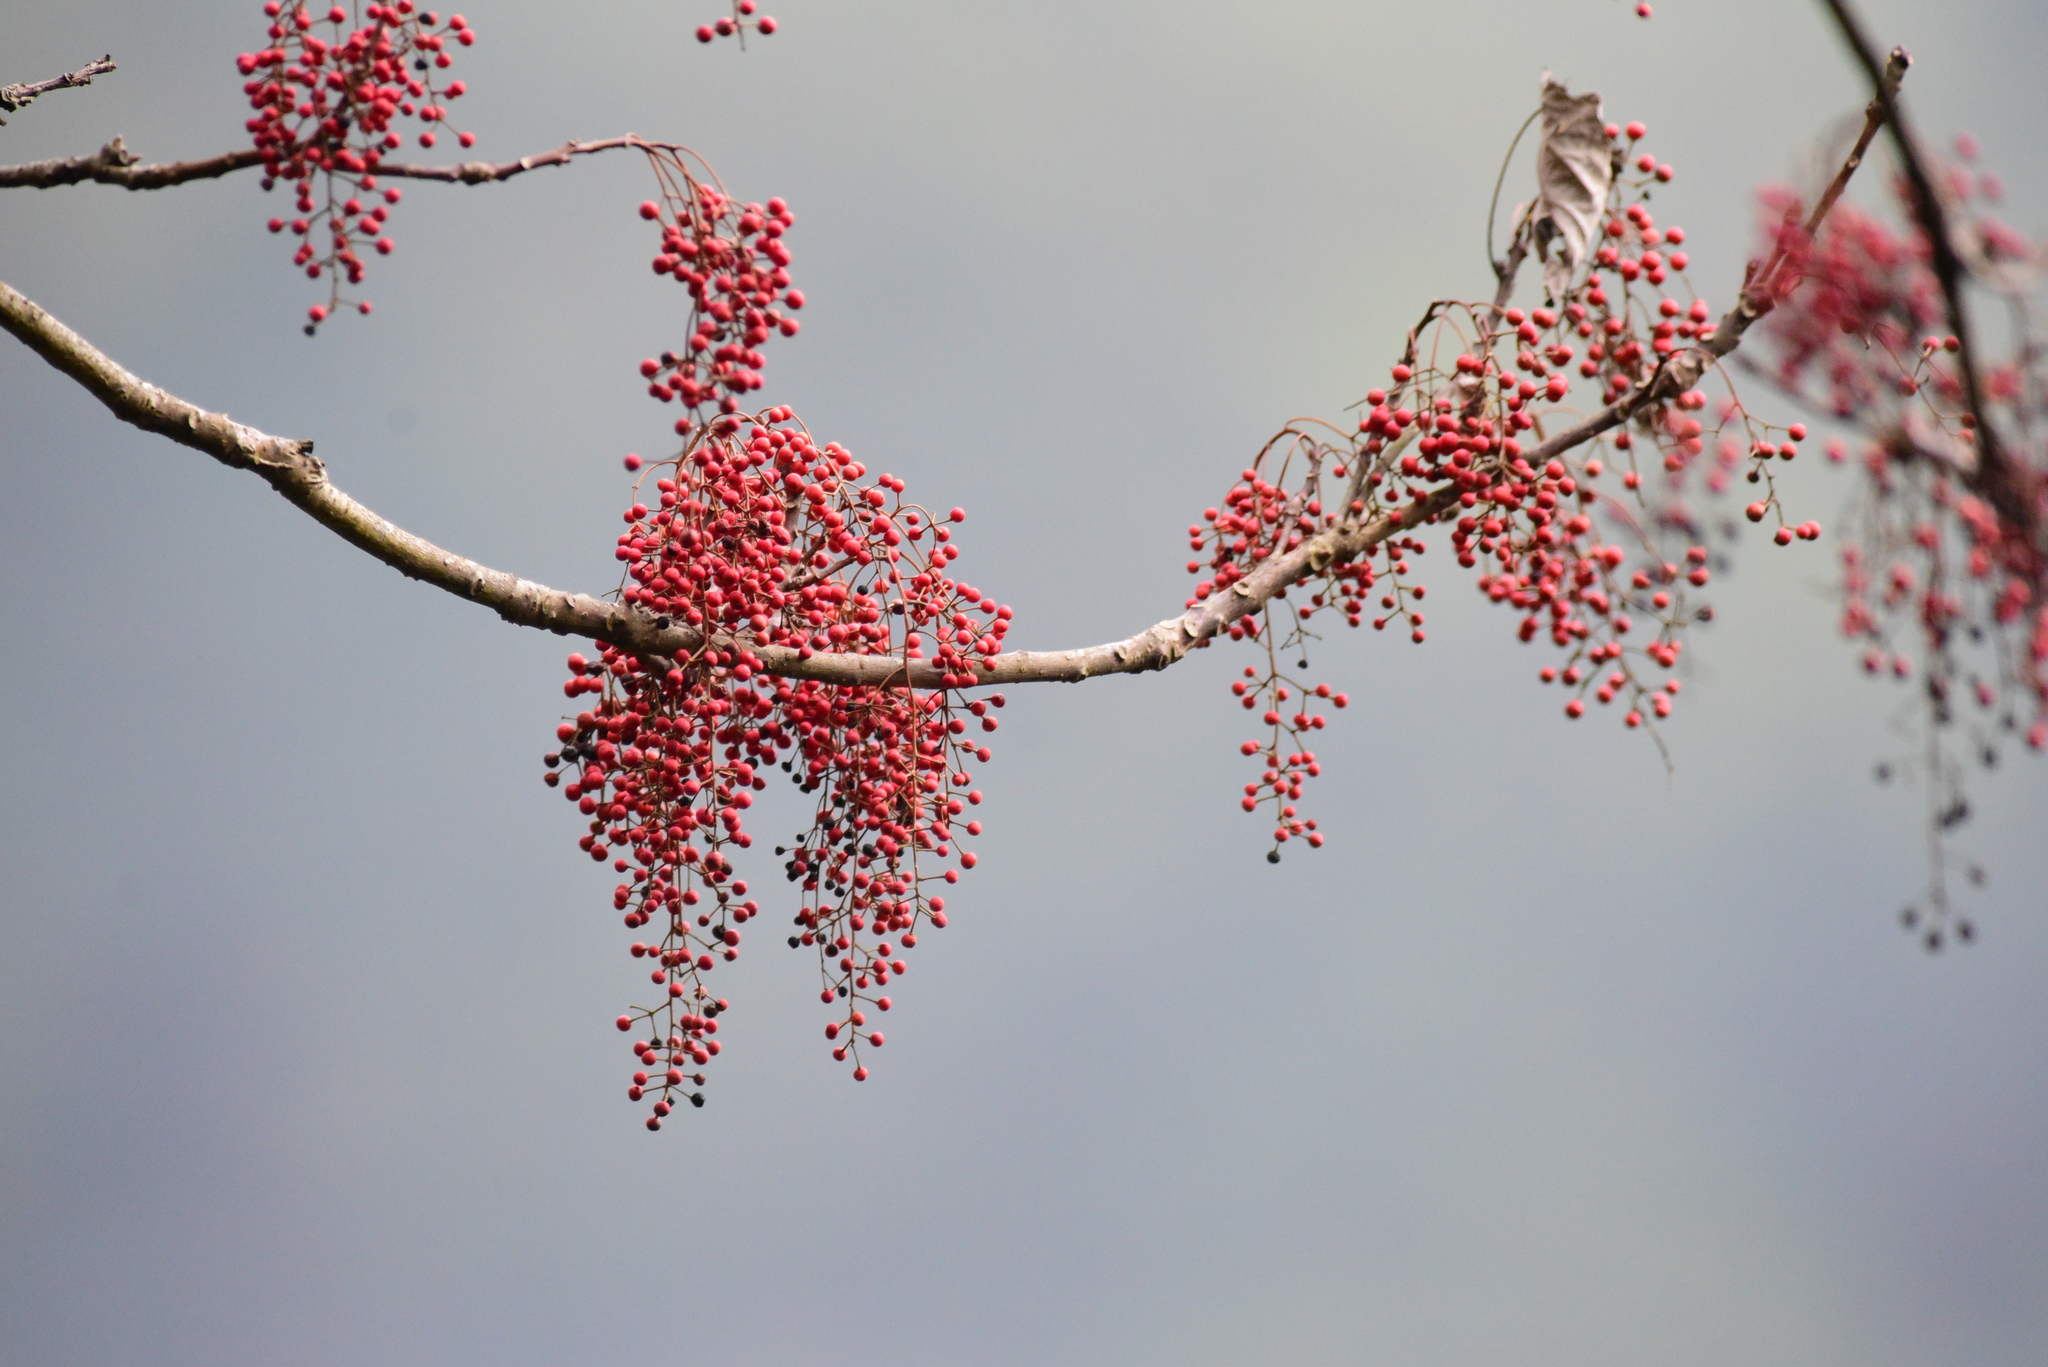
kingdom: Plantae
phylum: Tracheophyta
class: Magnoliopsida
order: Malpighiales
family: Salicaceae
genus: Idesia
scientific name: Idesia polycarpa
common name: Idesia tree
